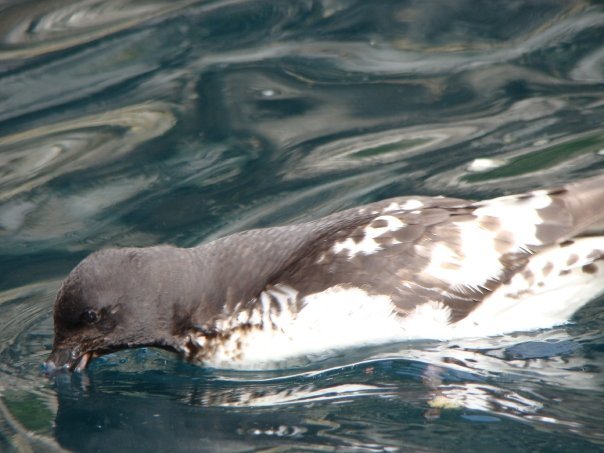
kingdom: Animalia
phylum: Chordata
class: Aves
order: Procellariiformes
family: Procellariidae
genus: Daption
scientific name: Daption capense
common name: Cape petrel
